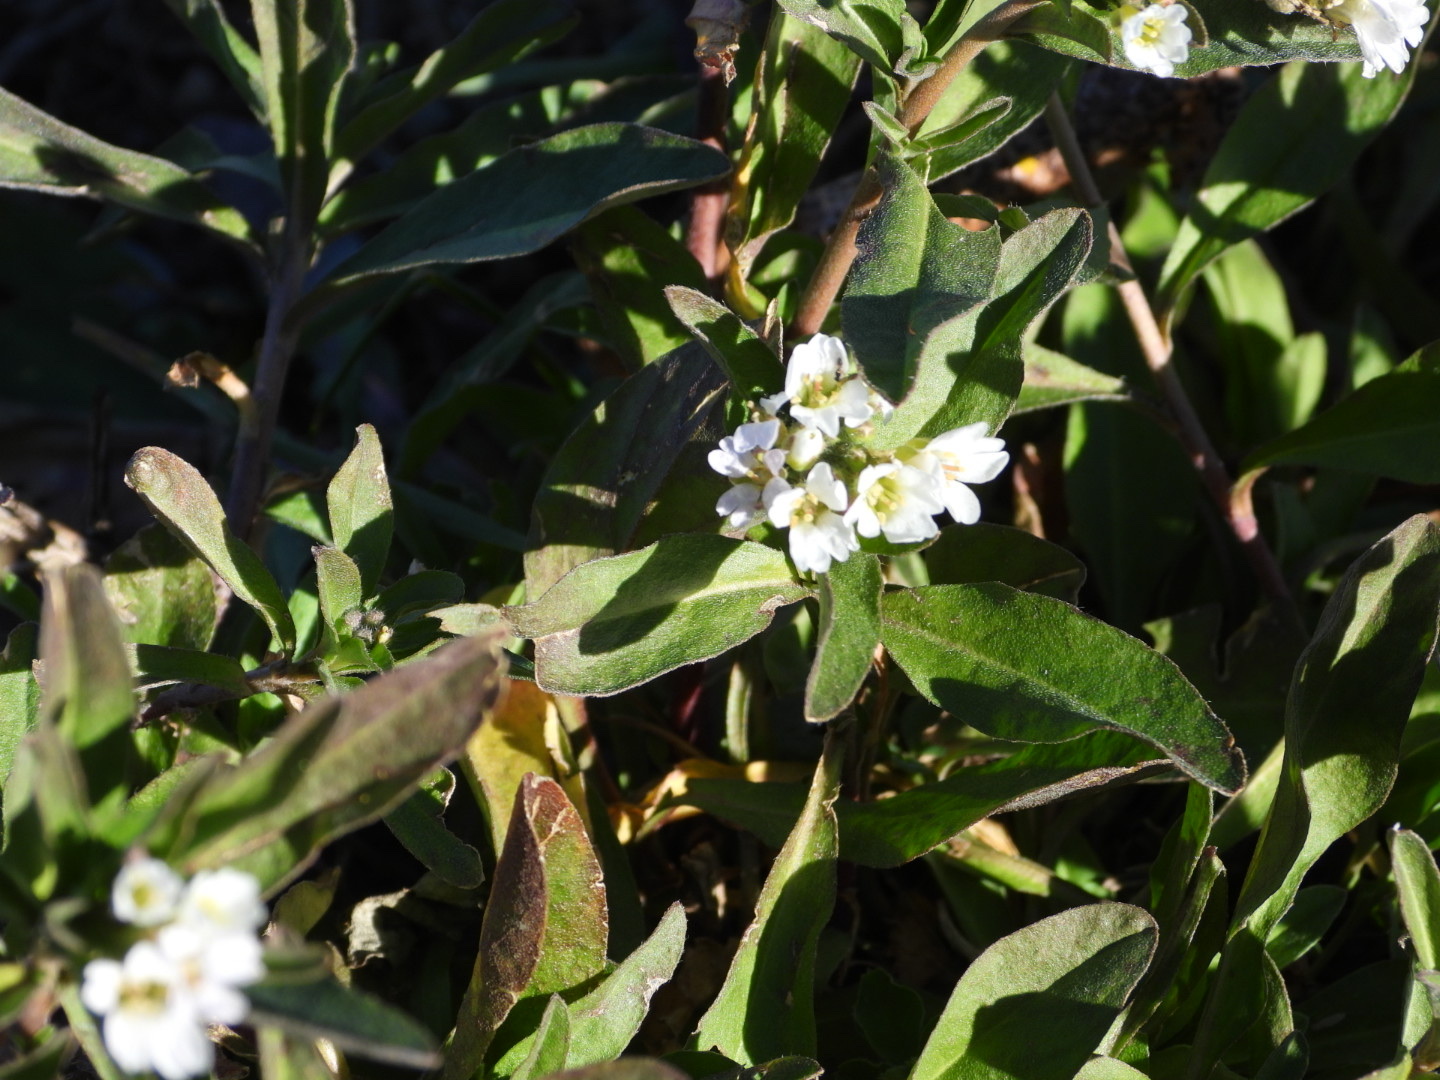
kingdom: Plantae
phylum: Tracheophyta
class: Magnoliopsida
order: Brassicales
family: Brassicaceae
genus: Berteroa
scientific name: Berteroa incana
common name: Hoary alison
